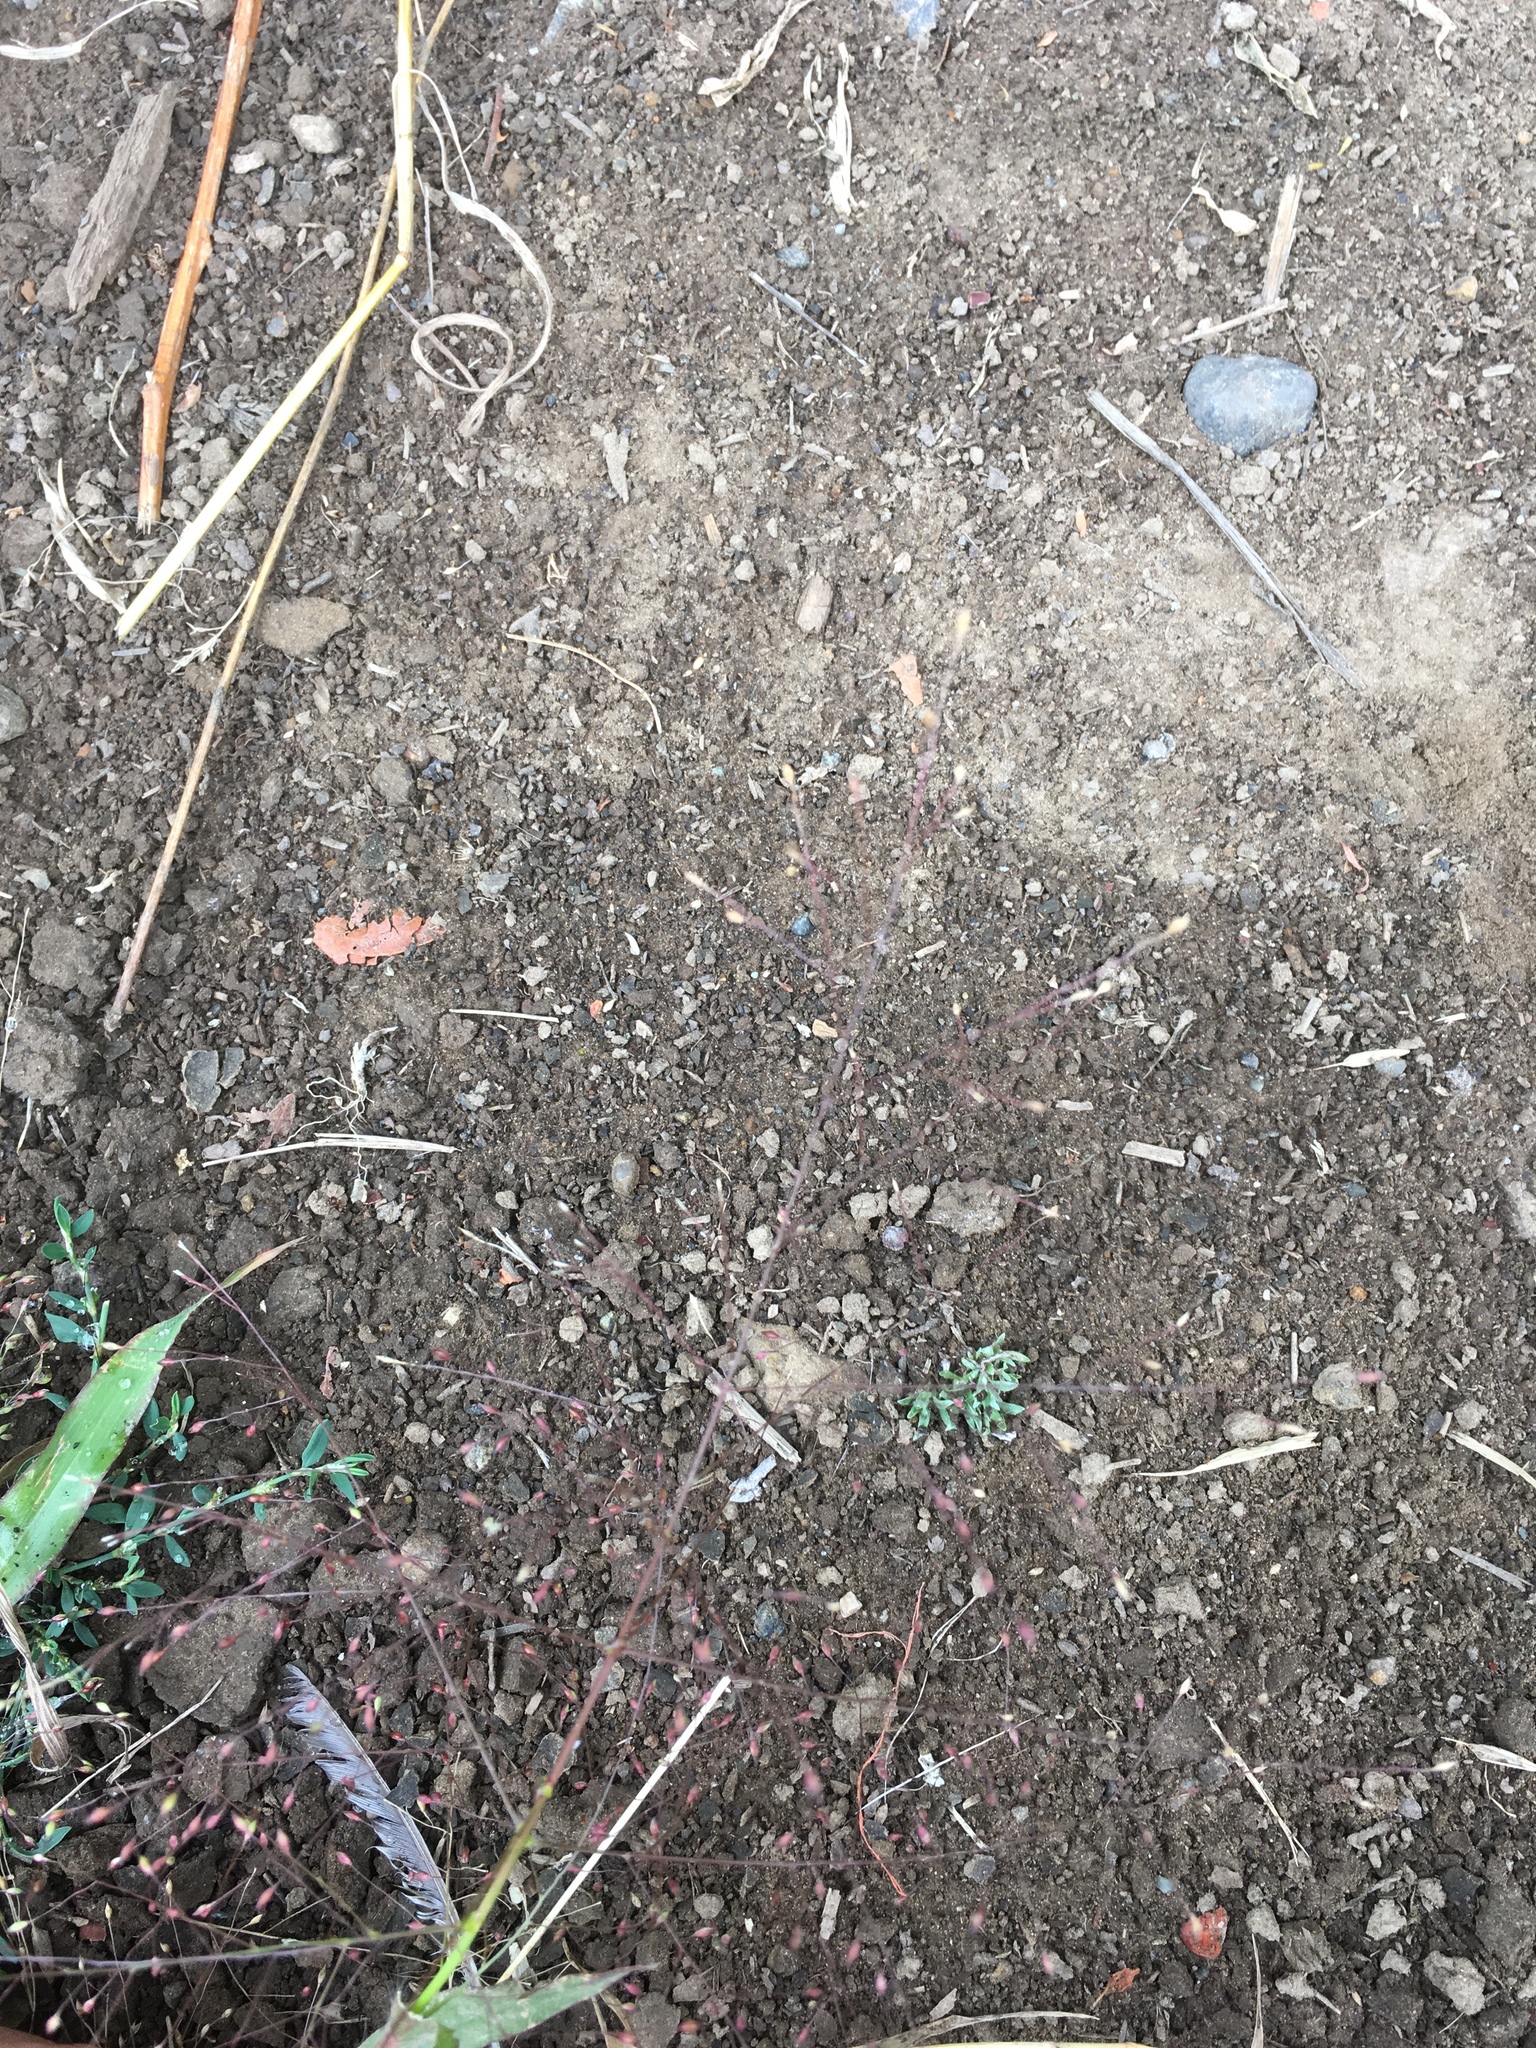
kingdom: Plantae
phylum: Tracheophyta
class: Liliopsida
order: Poales
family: Poaceae
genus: Panicum
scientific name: Panicum capillare
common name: Witch-grass
